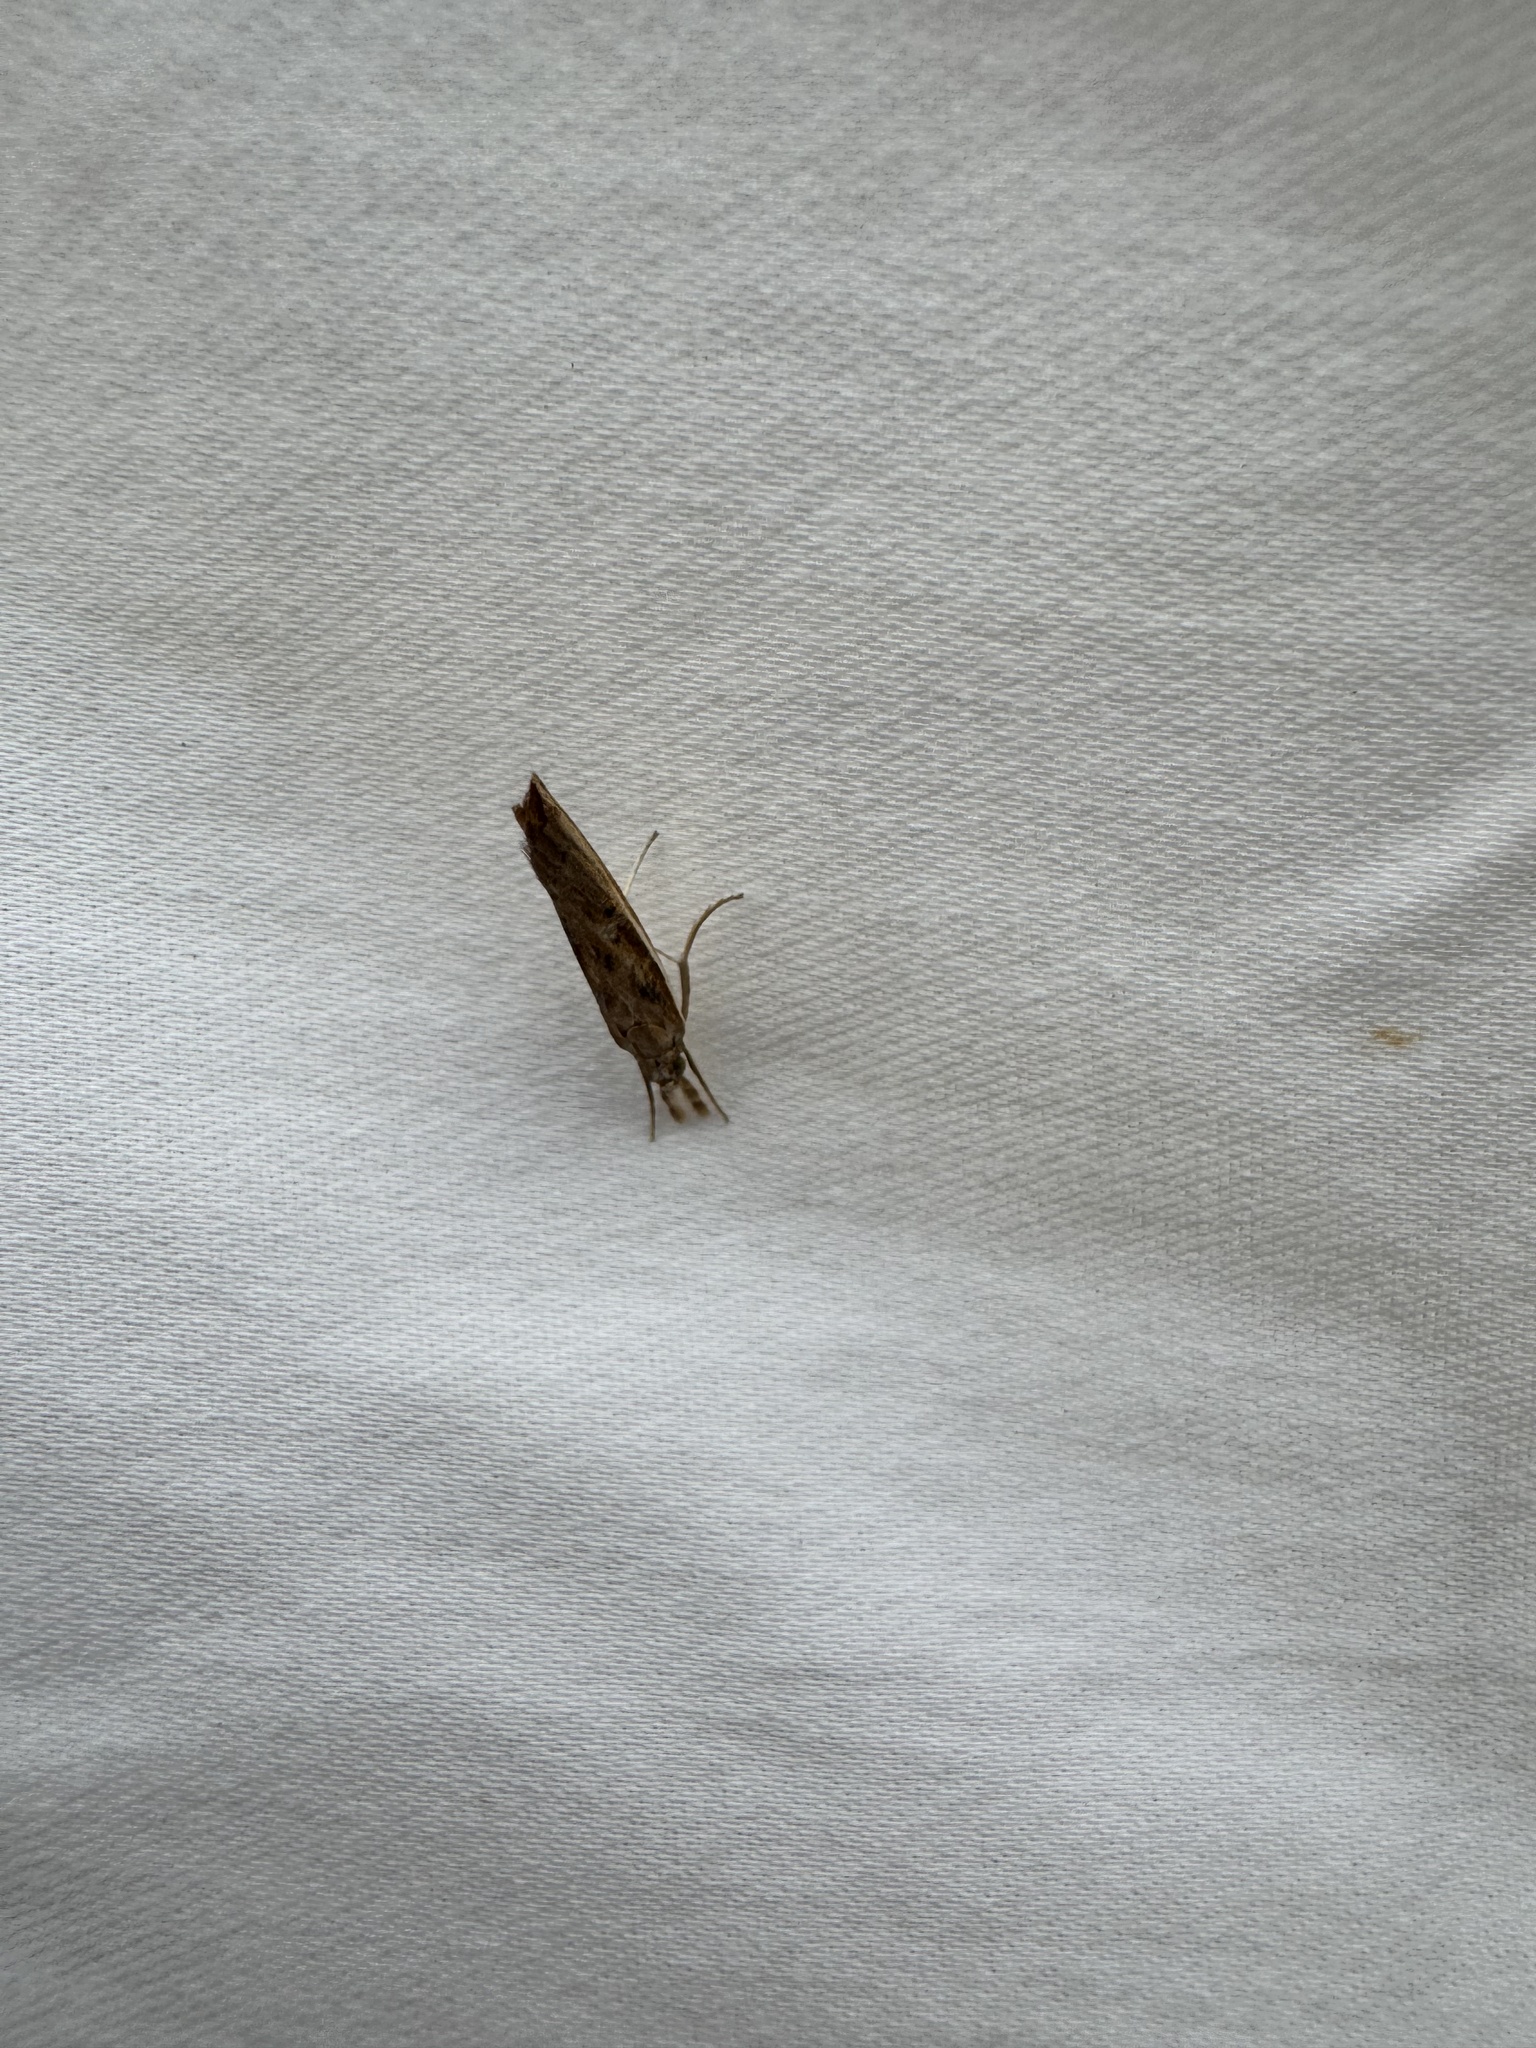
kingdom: Animalia
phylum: Arthropoda
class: Insecta
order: Lepidoptera
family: Crambidae
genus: Fissicrambus
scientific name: Fissicrambus fissiradiellus
